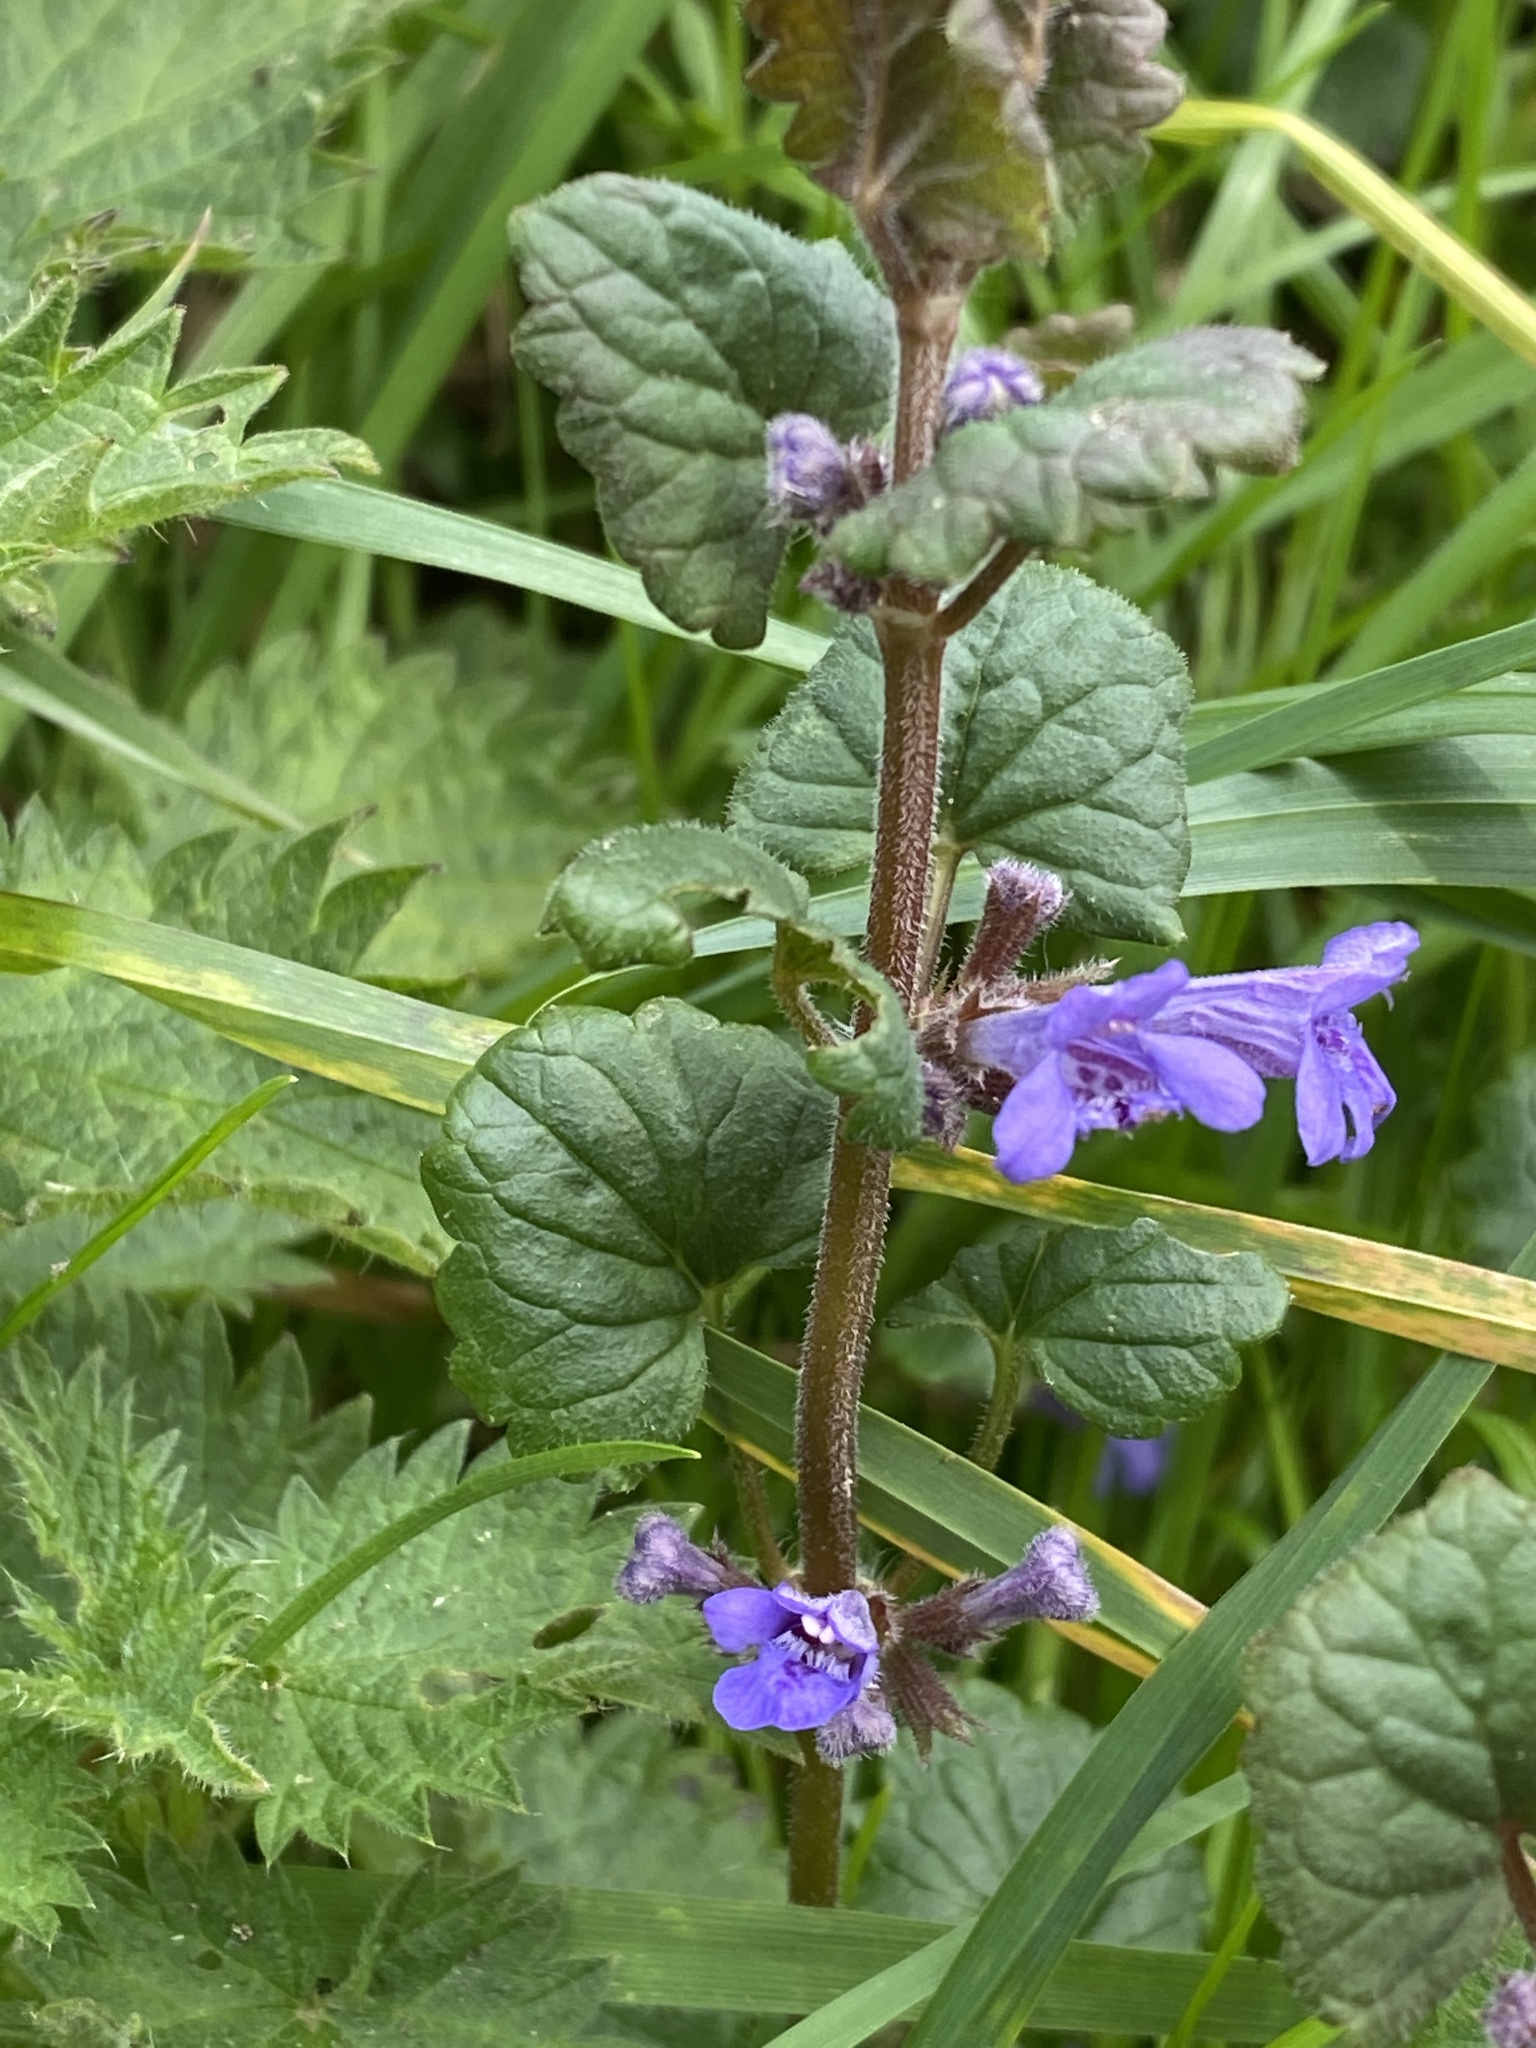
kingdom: Plantae
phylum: Tracheophyta
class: Magnoliopsida
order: Lamiales
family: Lamiaceae
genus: Glechoma
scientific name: Glechoma hederacea
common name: Ground ivy
